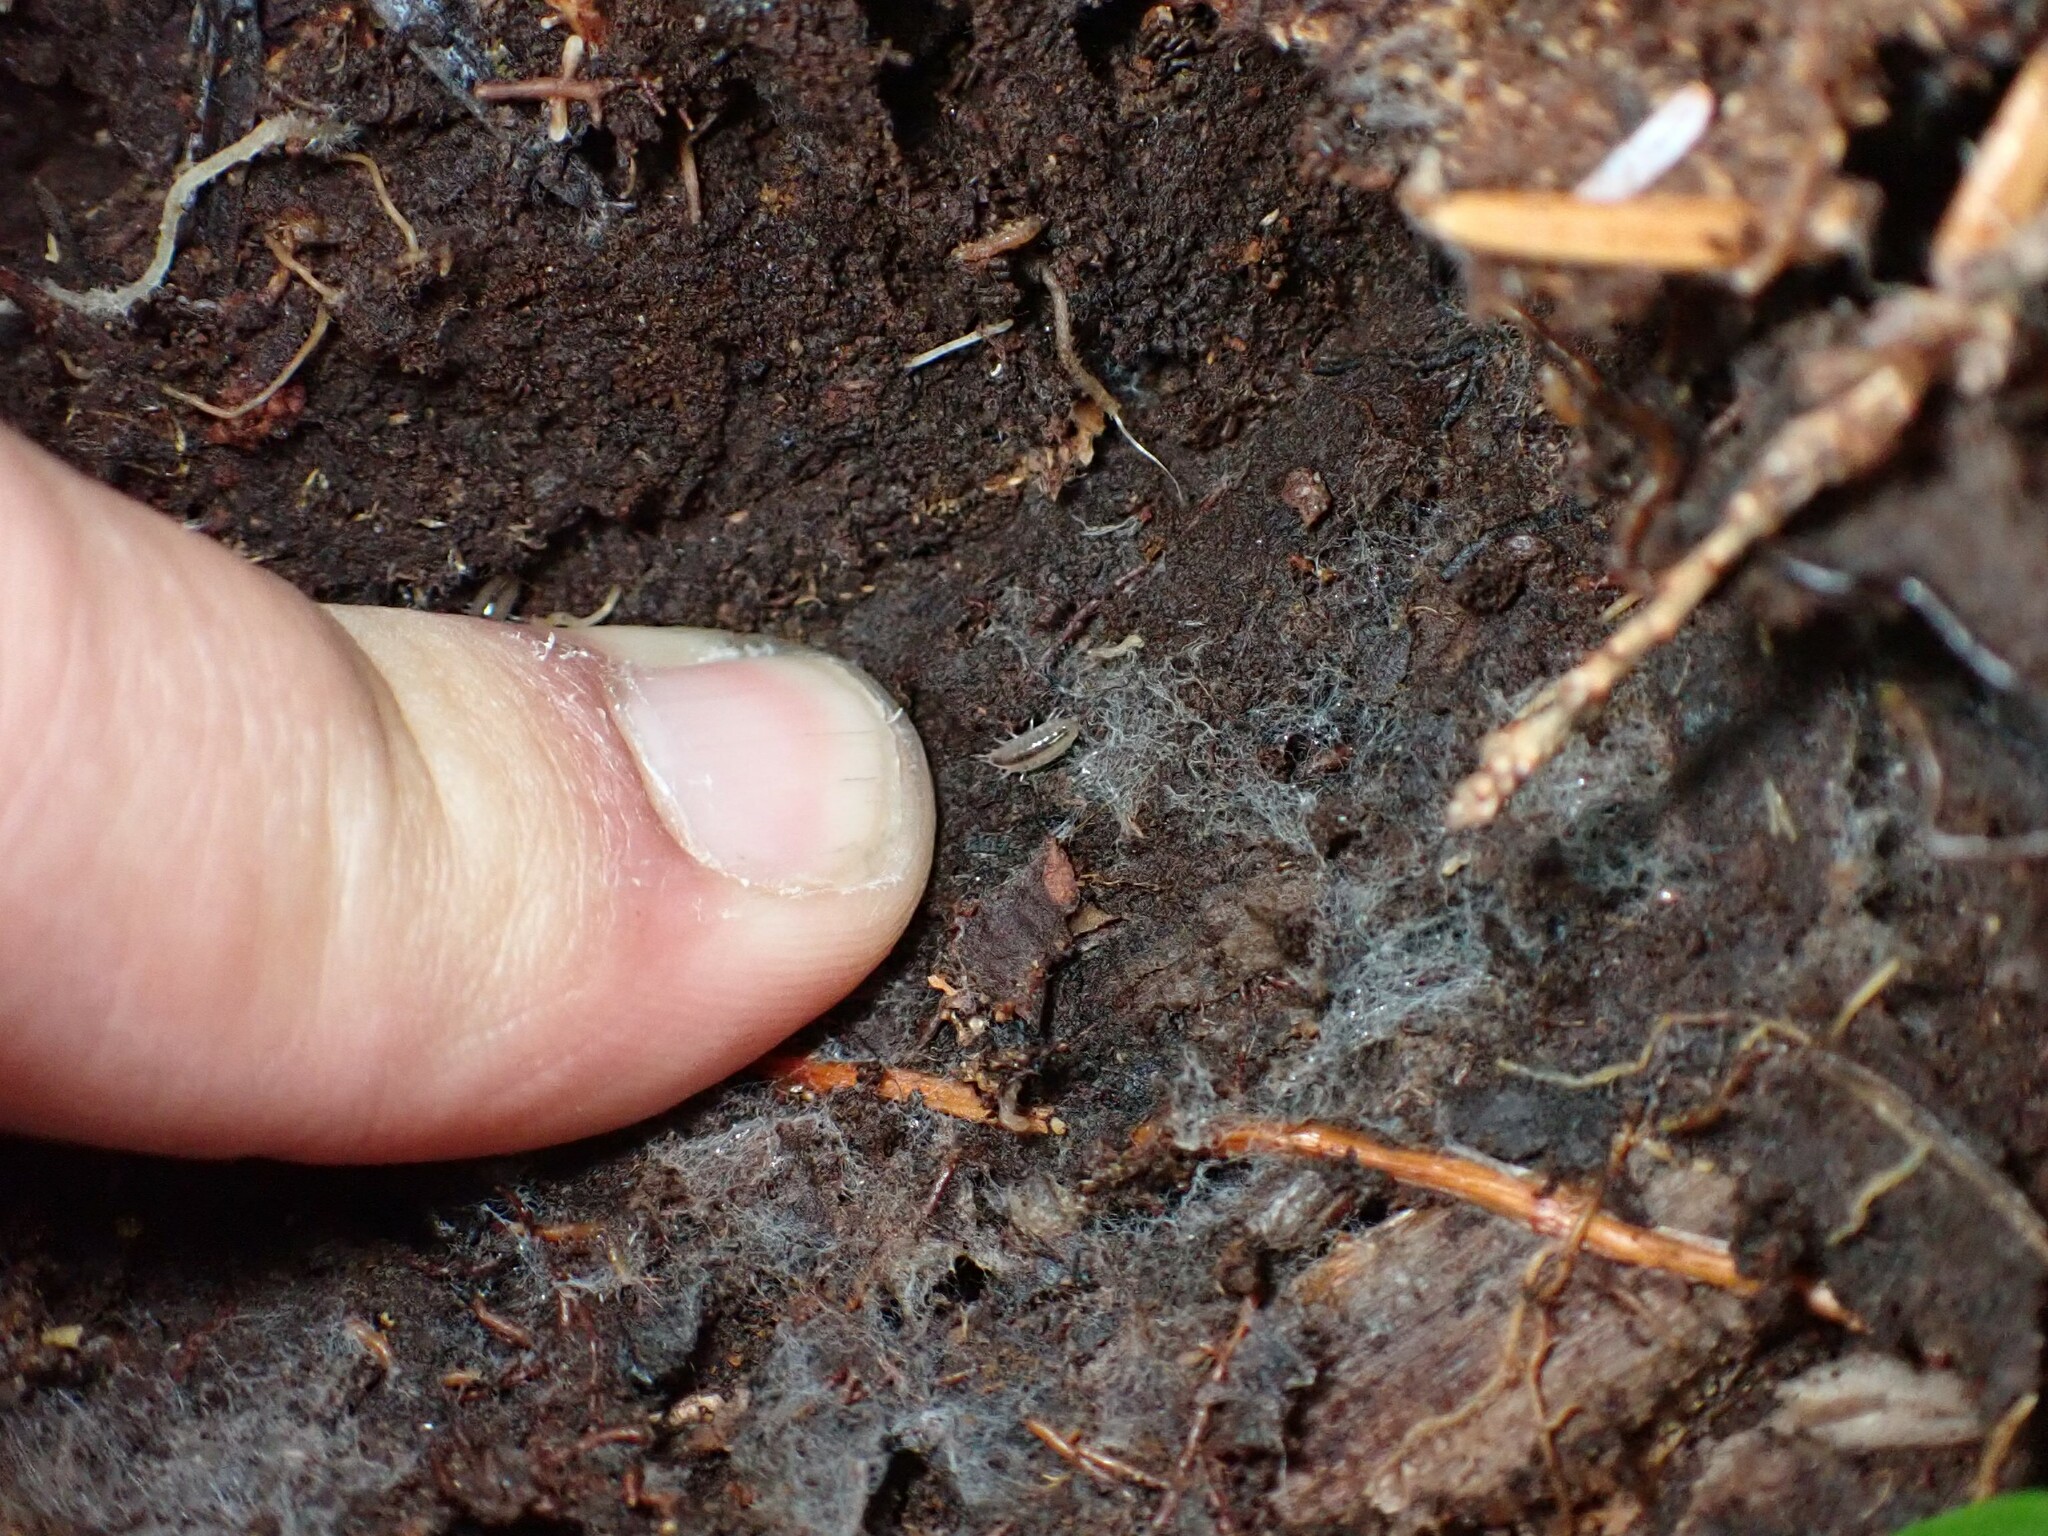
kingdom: Animalia
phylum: Arthropoda
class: Malacostraca
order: Isopoda
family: Ligiidae
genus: Ligidium
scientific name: Ligidium gracile
